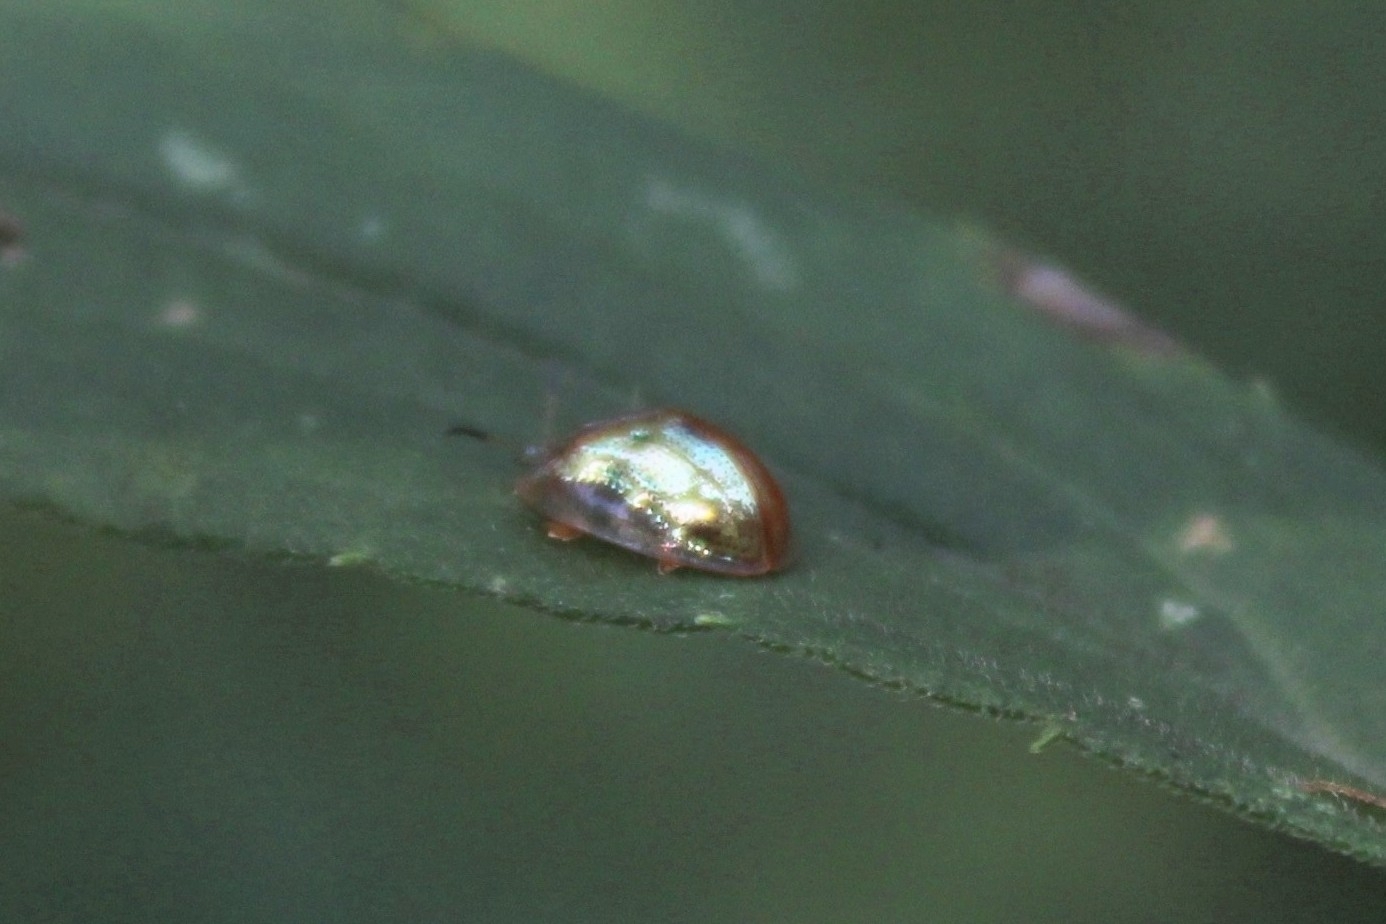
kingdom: Animalia
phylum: Arthropoda
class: Insecta
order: Coleoptera
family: Chrysomelidae
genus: Charidotella
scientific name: Charidotella sexpunctata
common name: Golden tortoise beetle
